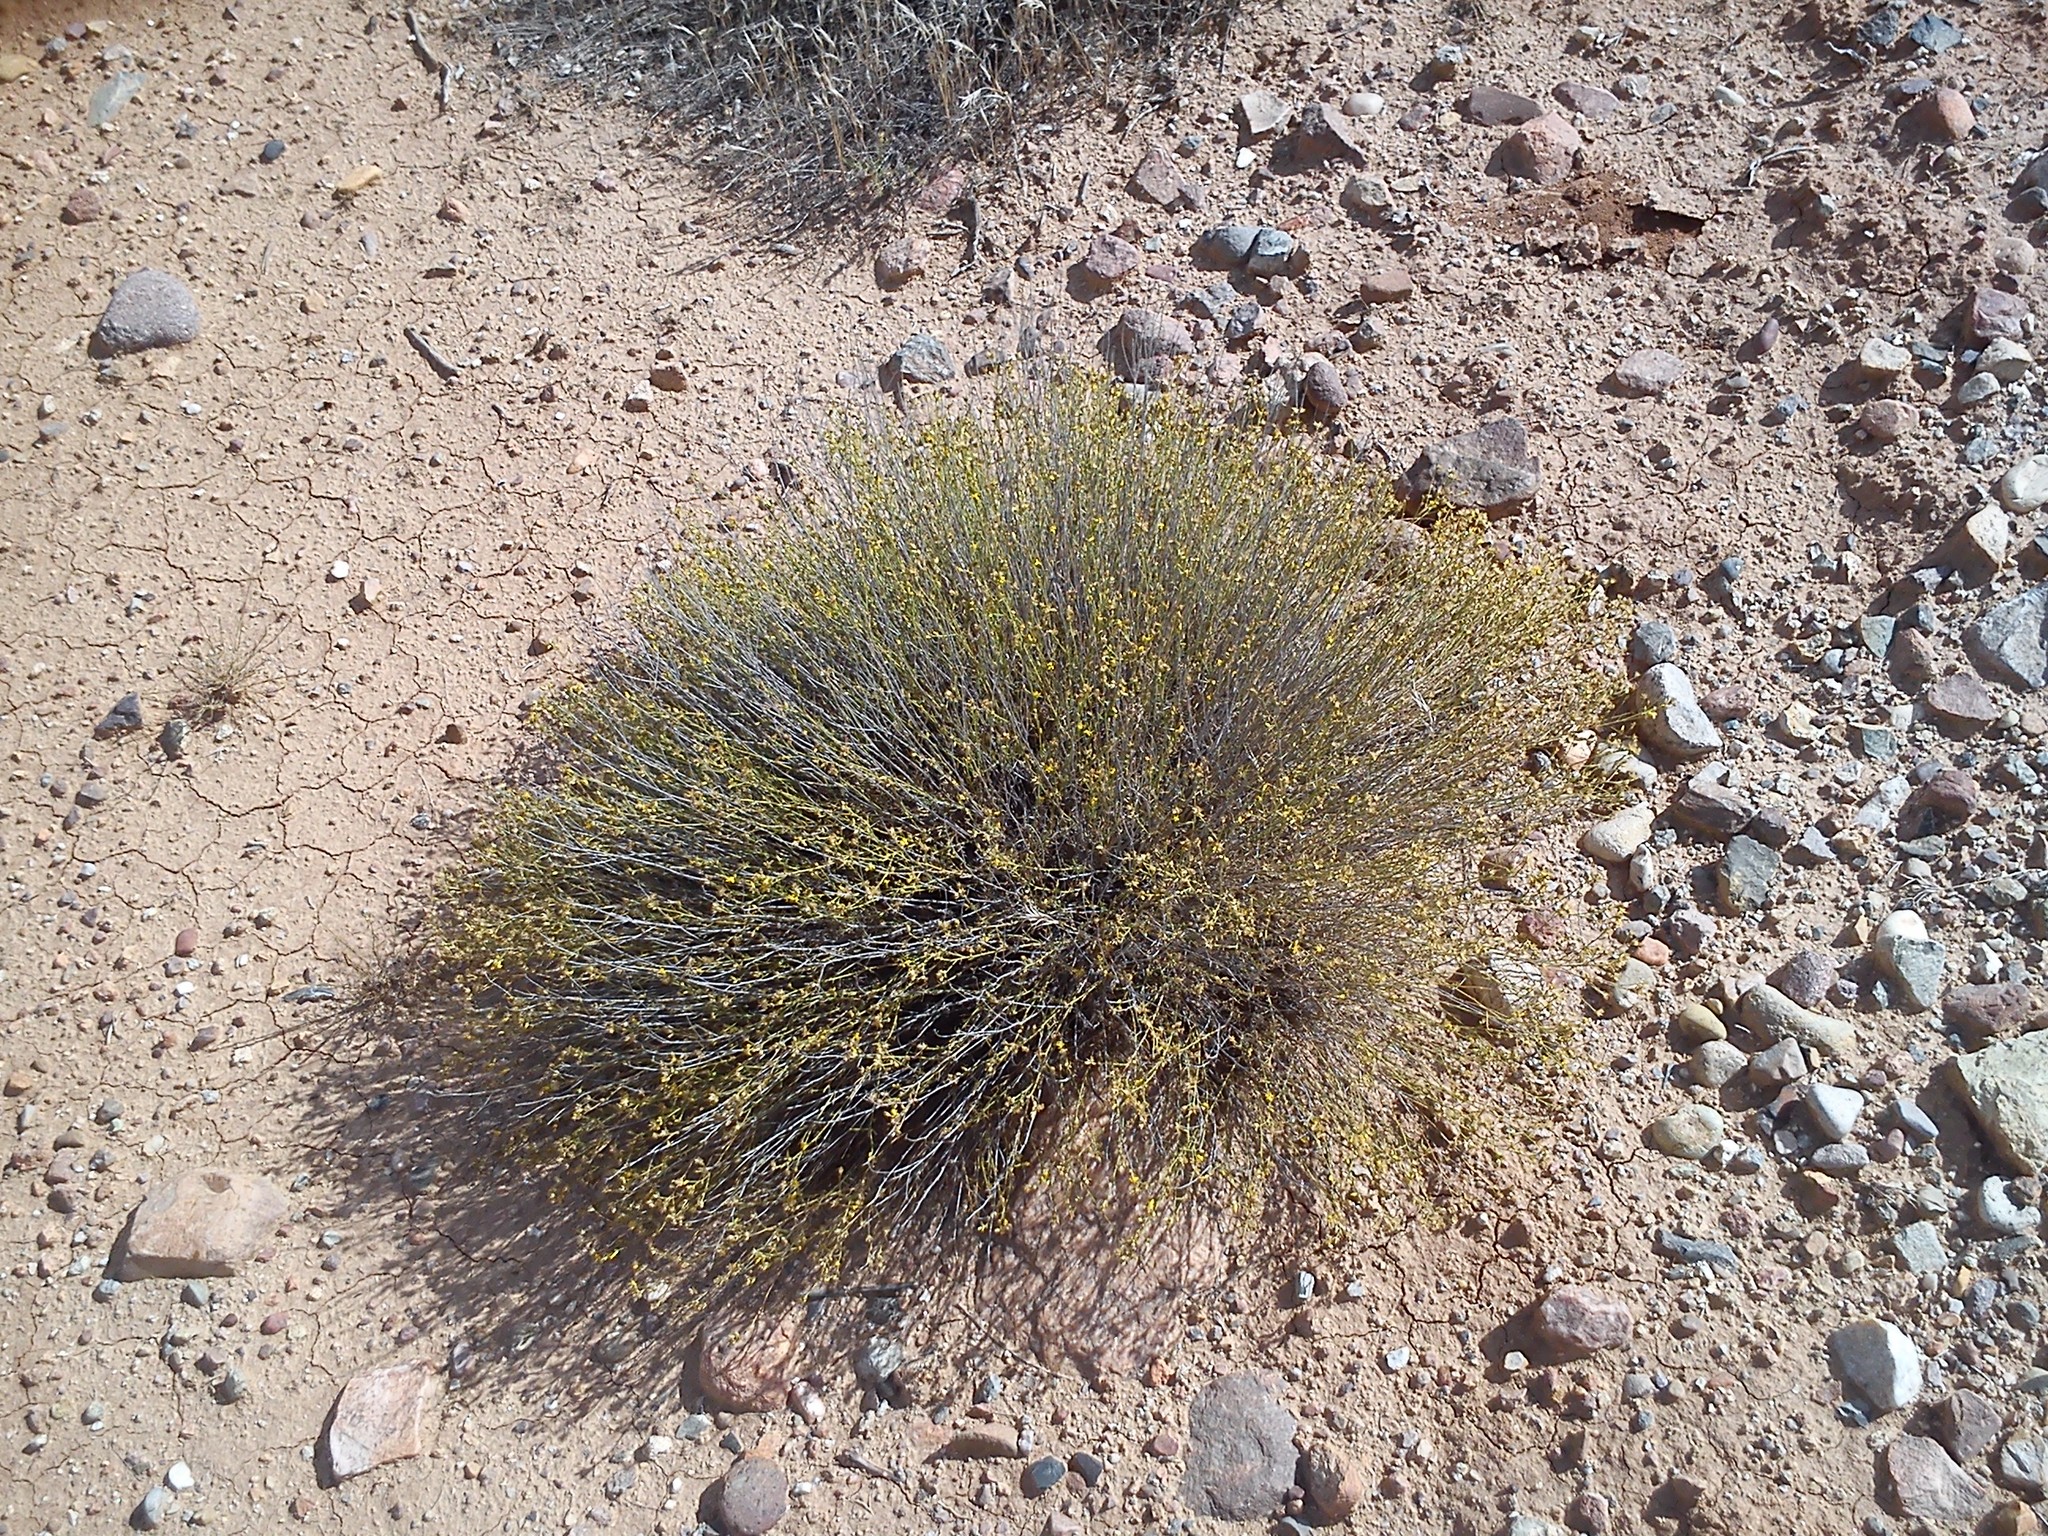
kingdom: Plantae
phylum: Tracheophyta
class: Magnoliopsida
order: Asterales
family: Asteraceae
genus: Gutierrezia
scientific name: Gutierrezia sarothrae
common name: Broom snakeweed
